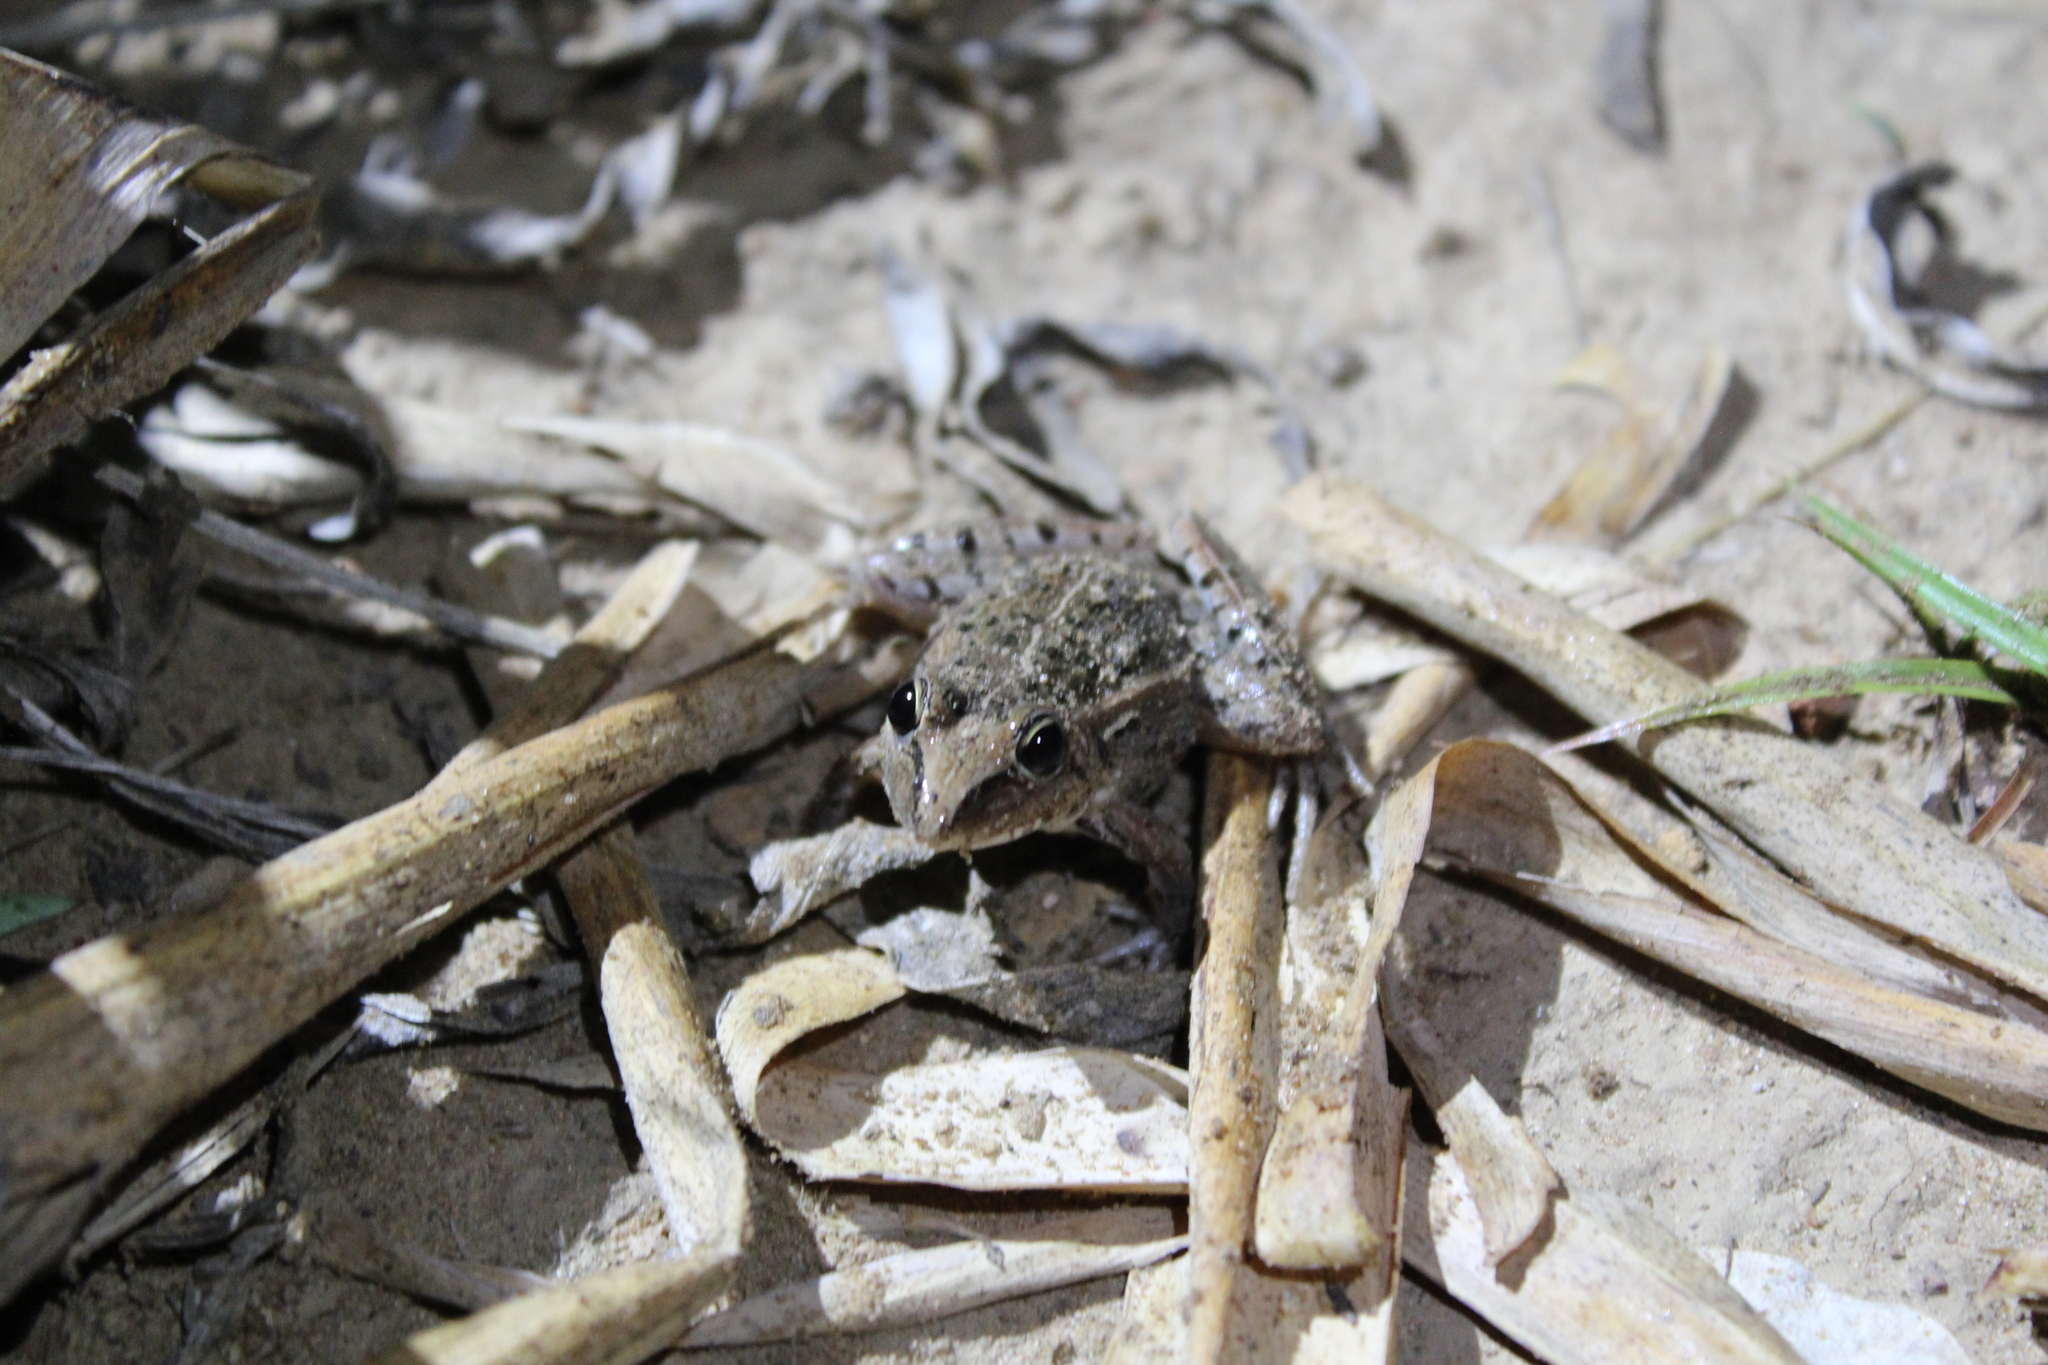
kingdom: Animalia
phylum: Chordata
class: Amphibia
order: Anura
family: Ptychadenidae
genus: Ptychadena
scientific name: Ptychadena mascareniensis
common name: Mascarene grass frog
